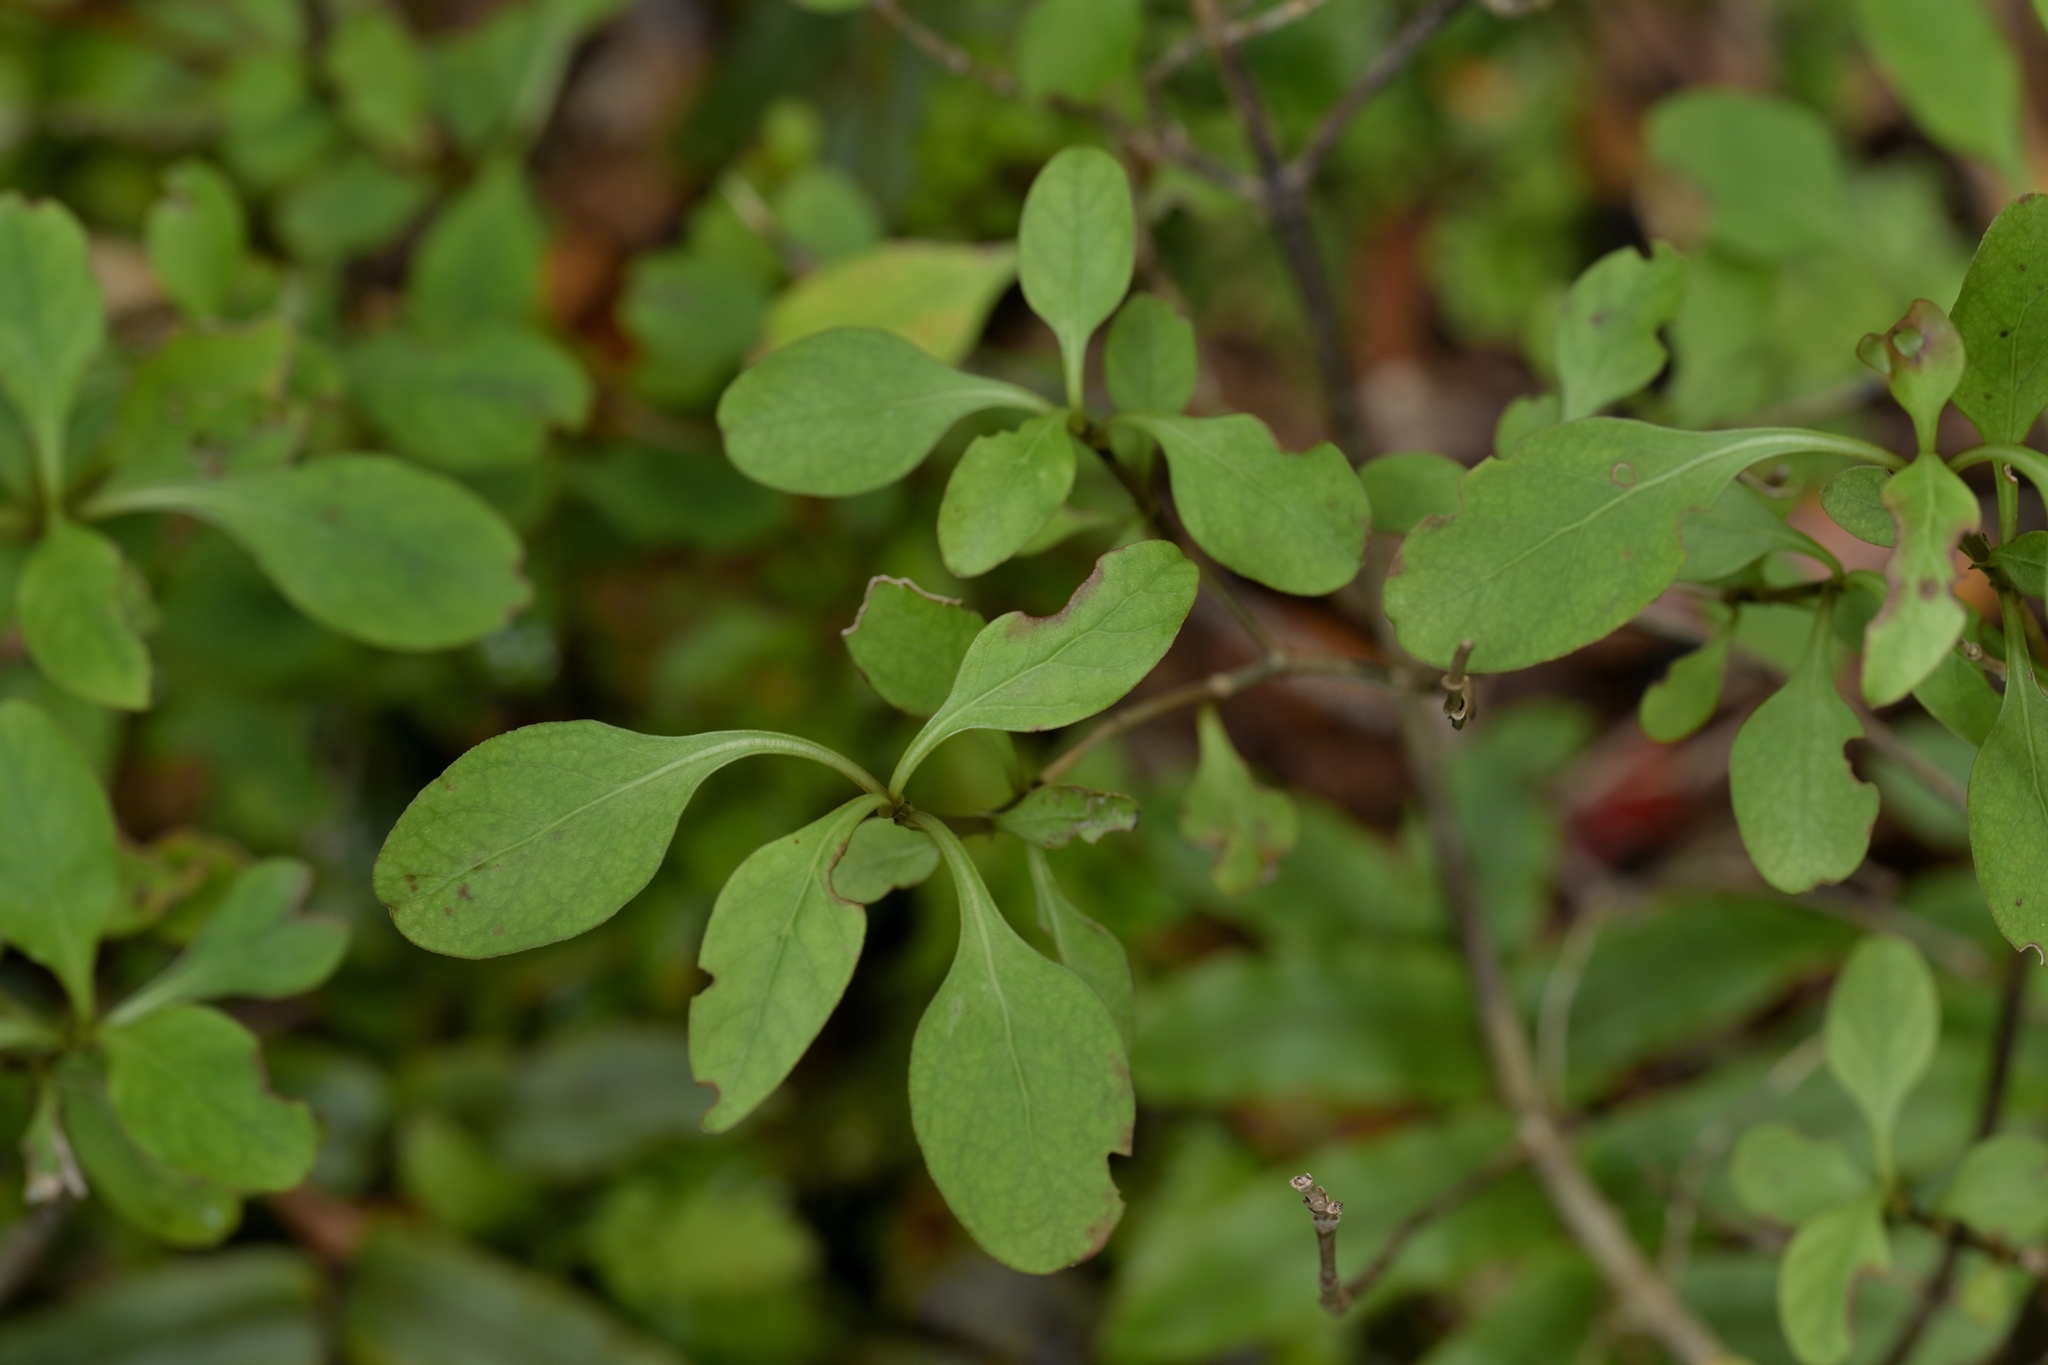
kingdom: Plantae
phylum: Tracheophyta
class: Magnoliopsida
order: Gentianales
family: Rubiaceae
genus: Coprosma
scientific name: Coprosma foetidissima
